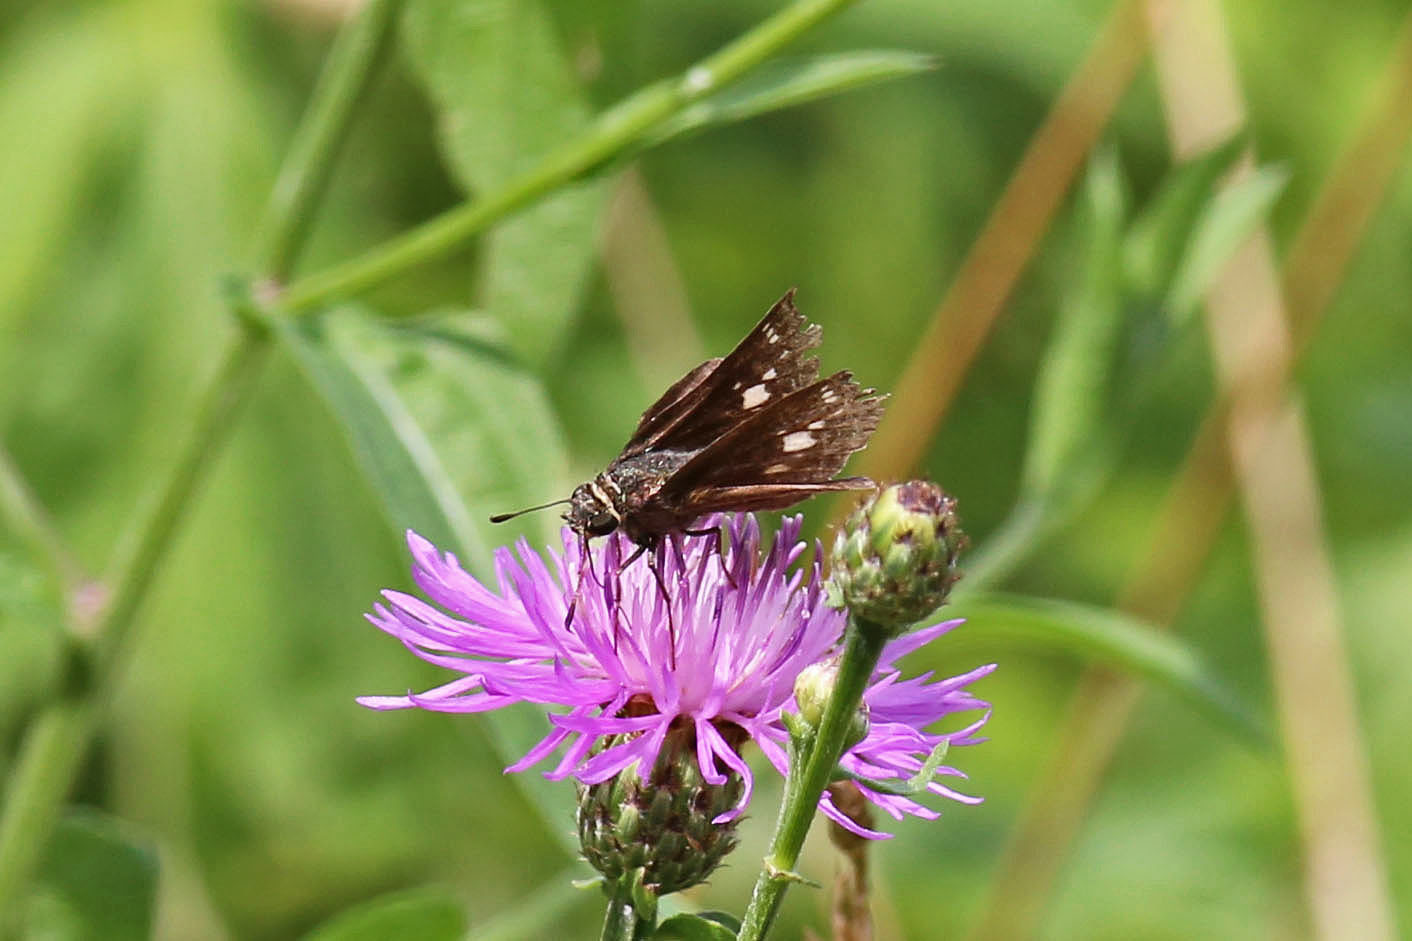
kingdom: Animalia
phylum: Arthropoda
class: Insecta
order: Lepidoptera
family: Hesperiidae
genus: Vernia
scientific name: Vernia verna
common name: Little glassywing
